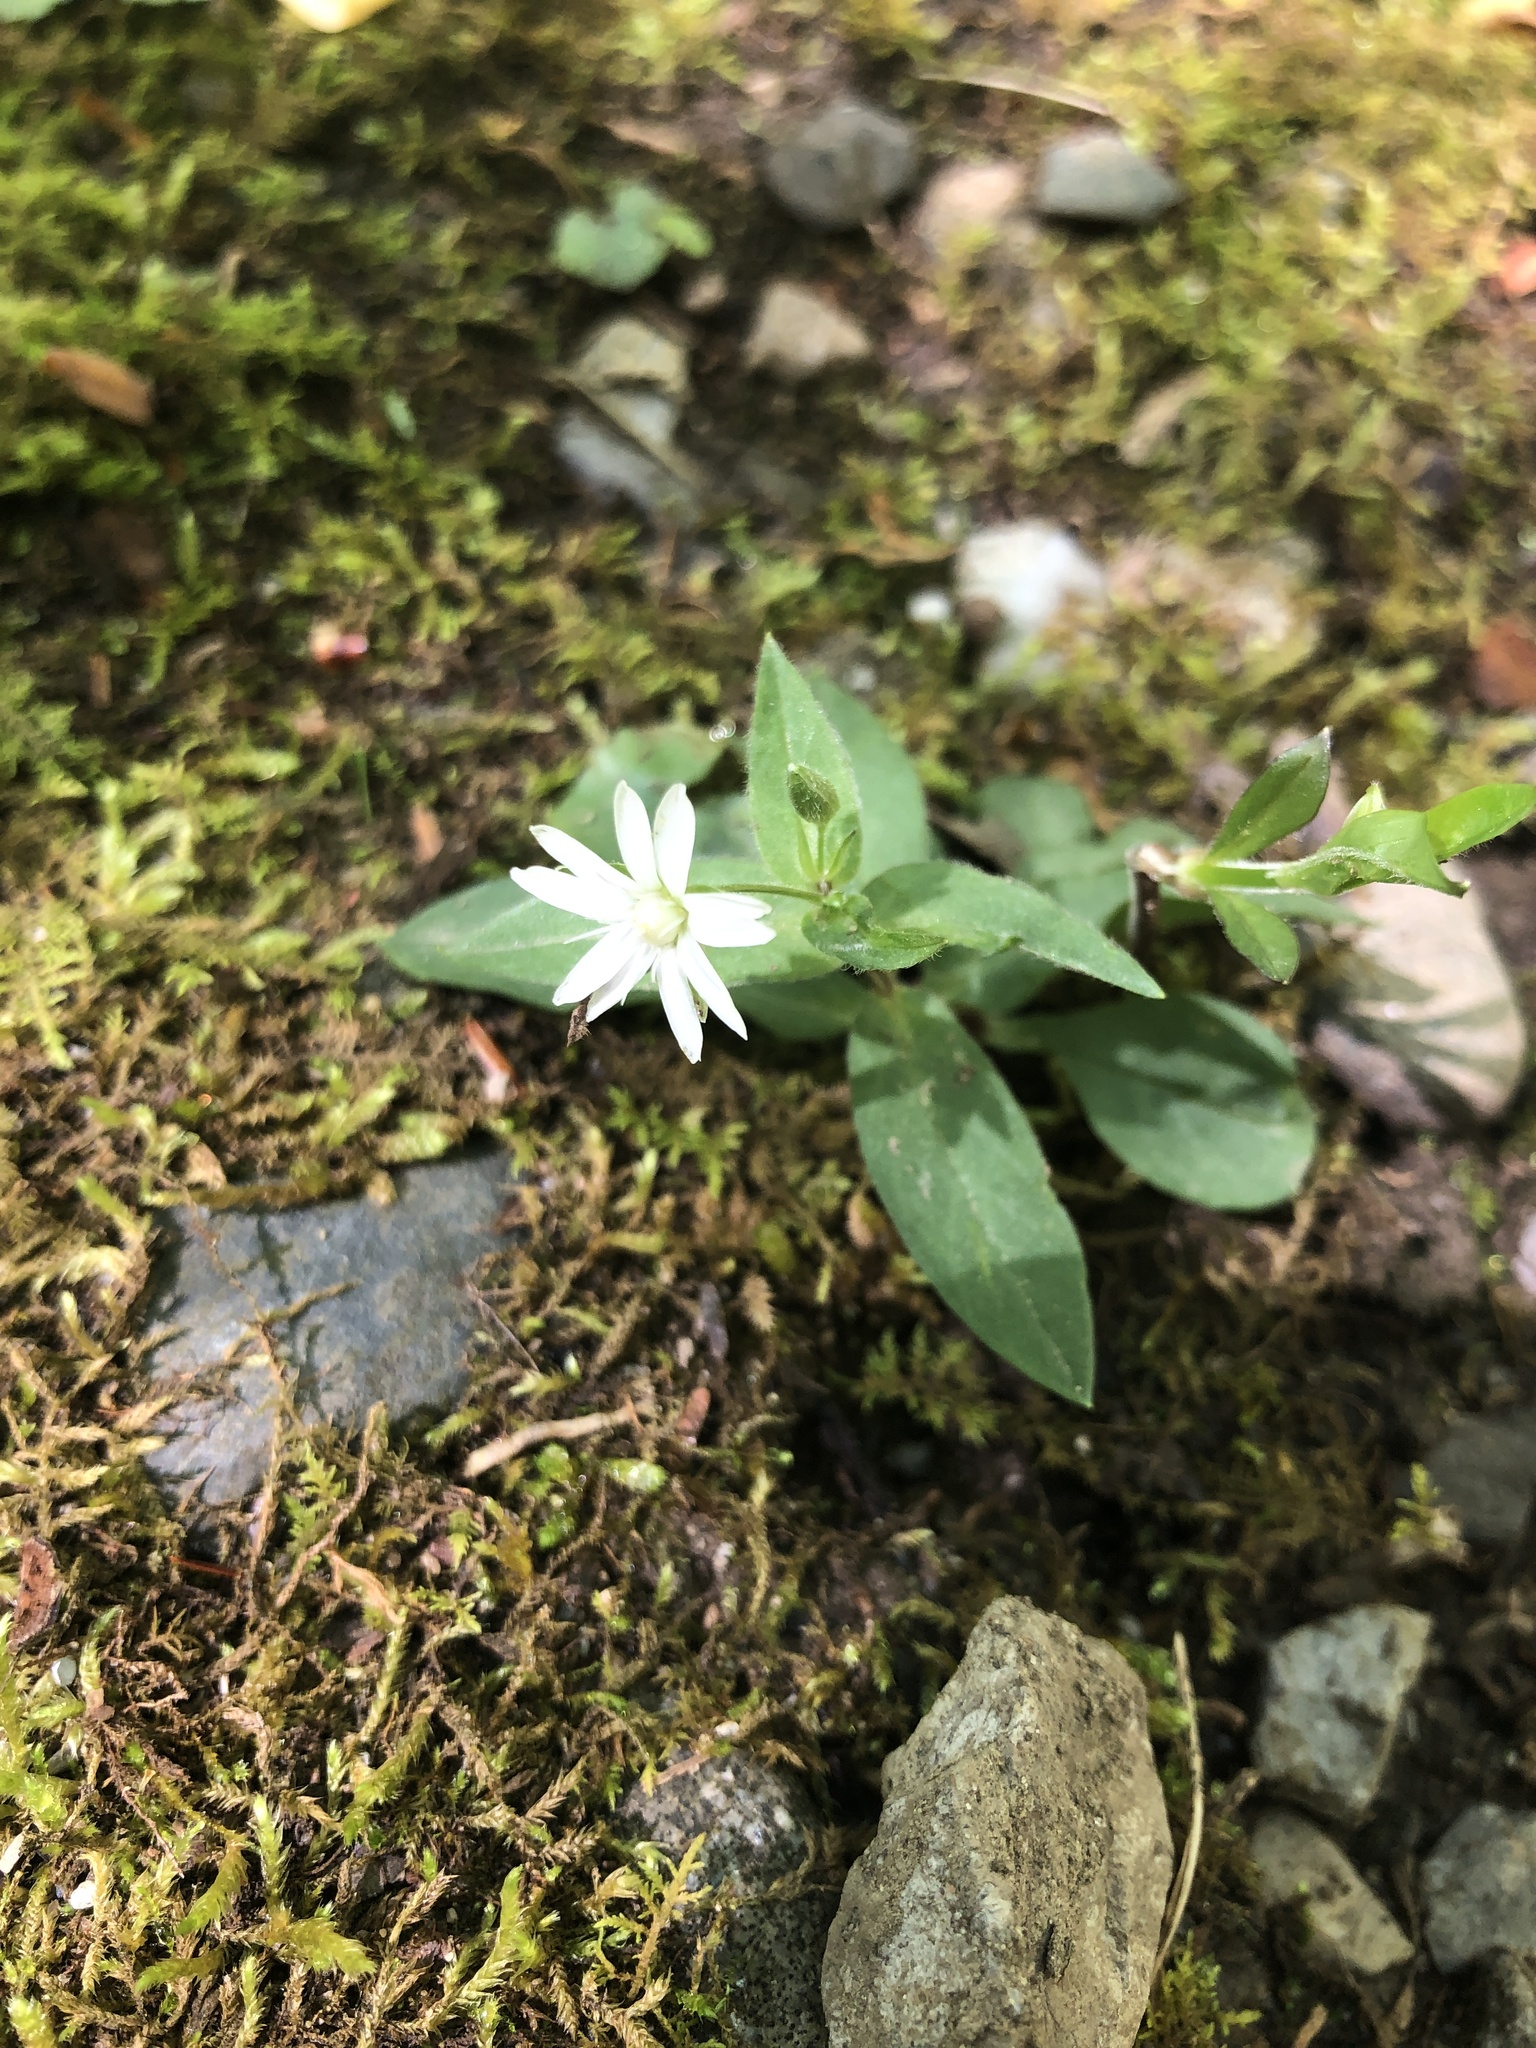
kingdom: Plantae
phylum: Tracheophyta
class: Magnoliopsida
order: Caryophyllales
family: Caryophyllaceae
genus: Stellaria
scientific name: Stellaria pubera
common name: Star chickweed
